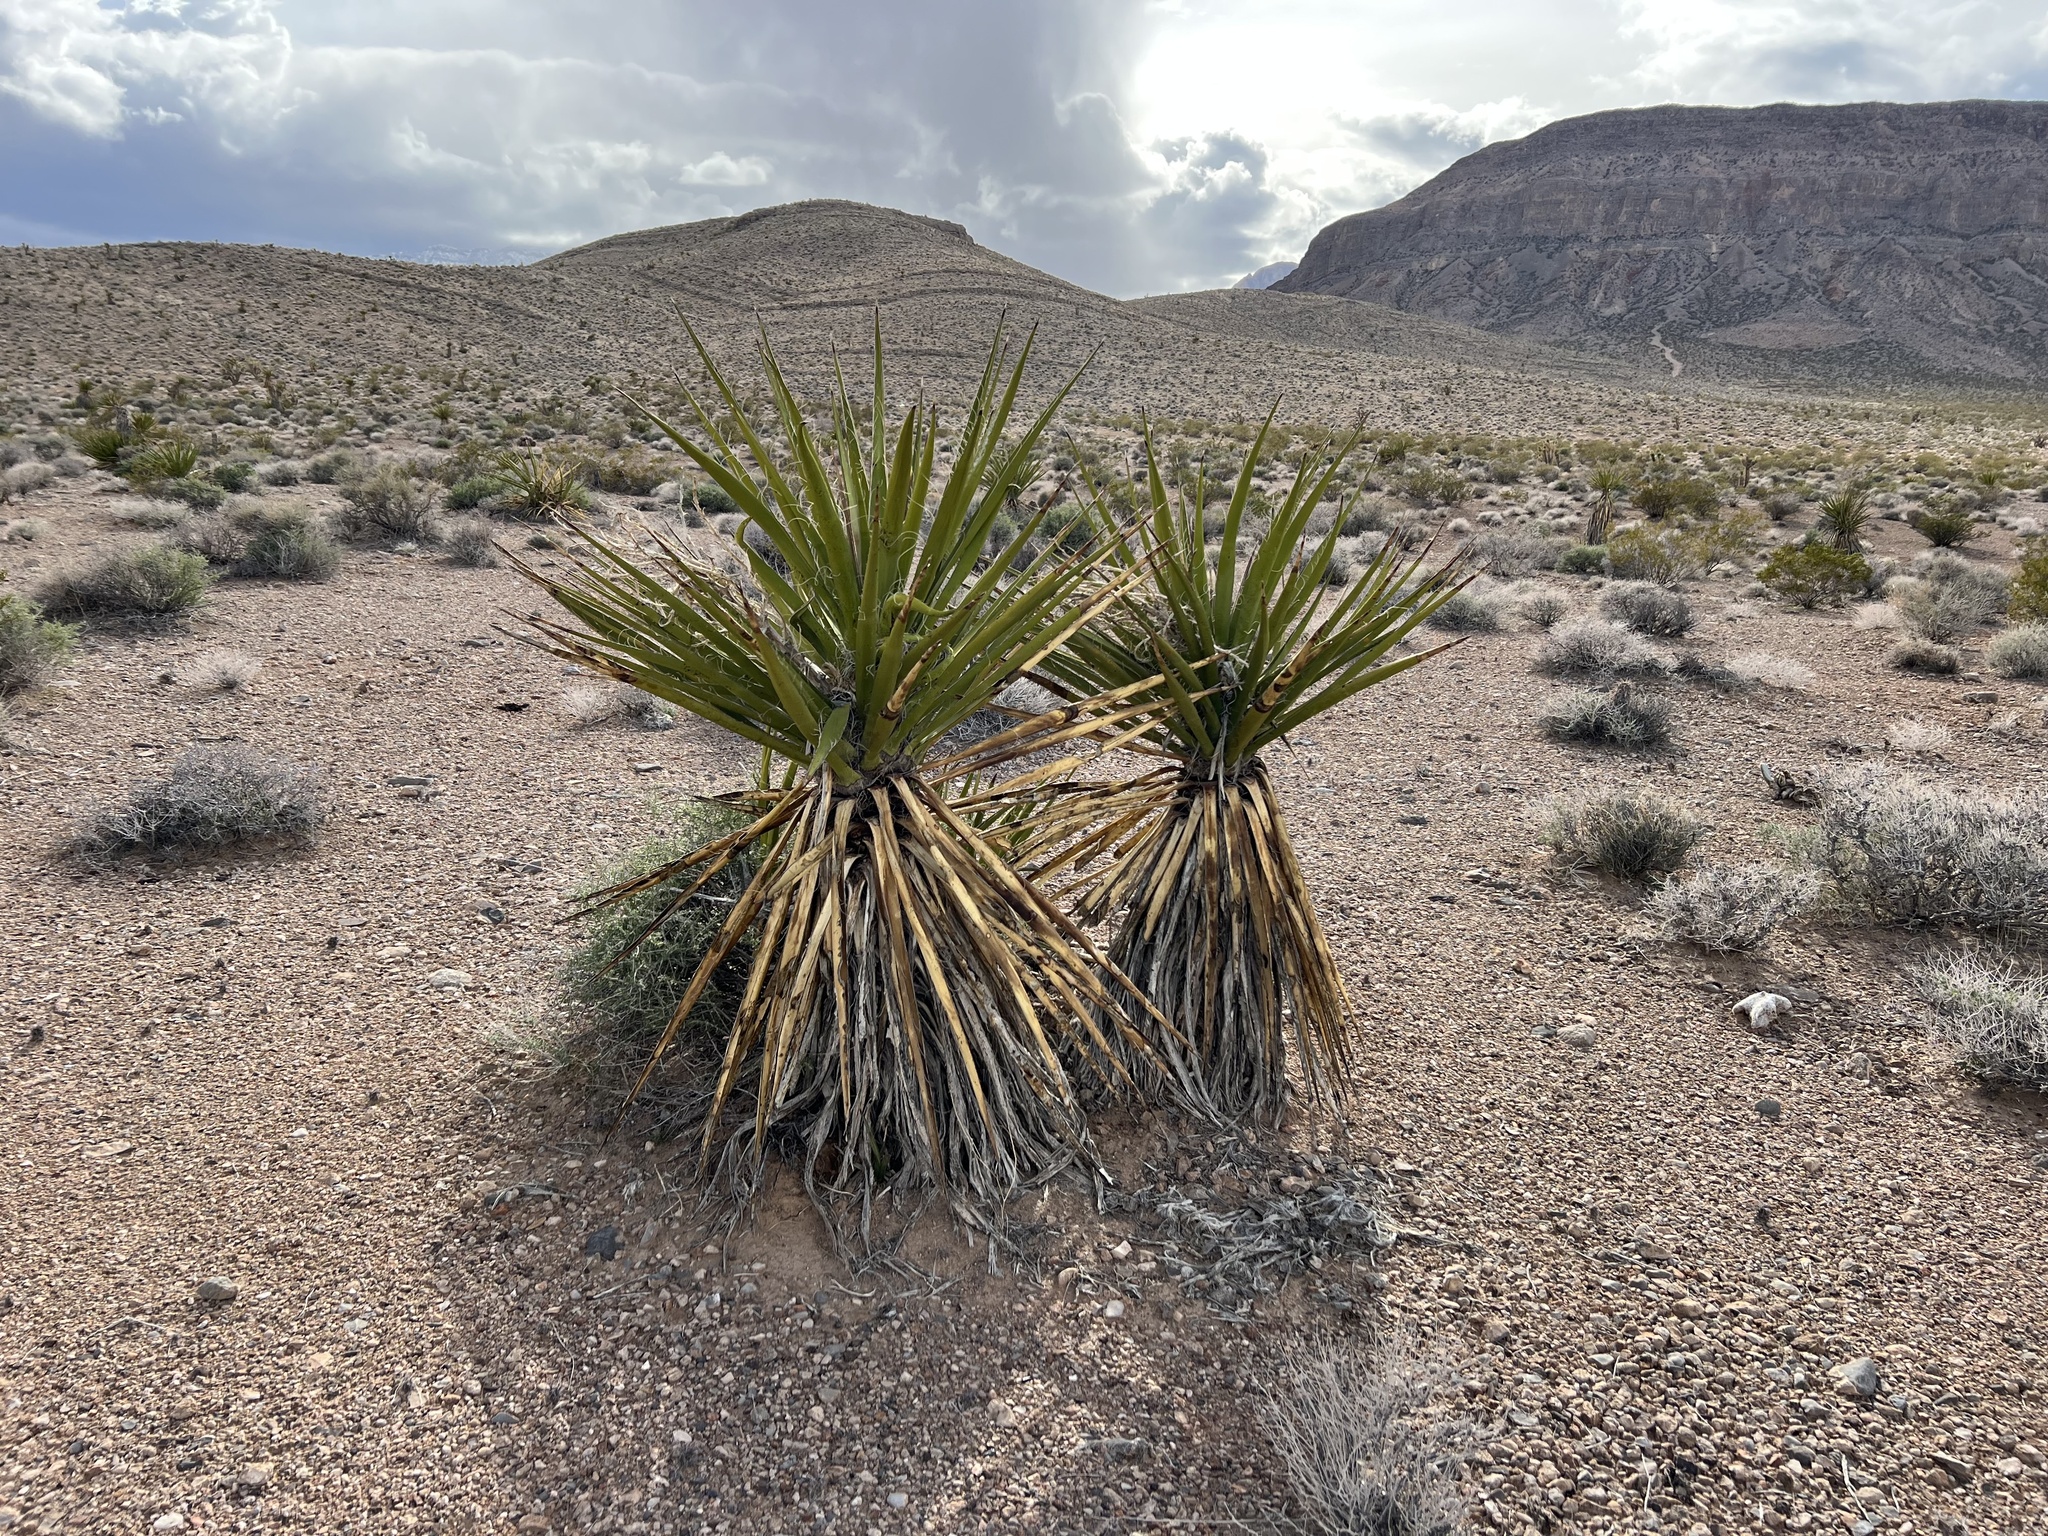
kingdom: Plantae
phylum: Tracheophyta
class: Liliopsida
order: Asparagales
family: Asparagaceae
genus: Yucca
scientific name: Yucca schidigera
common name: Mojave yucca
